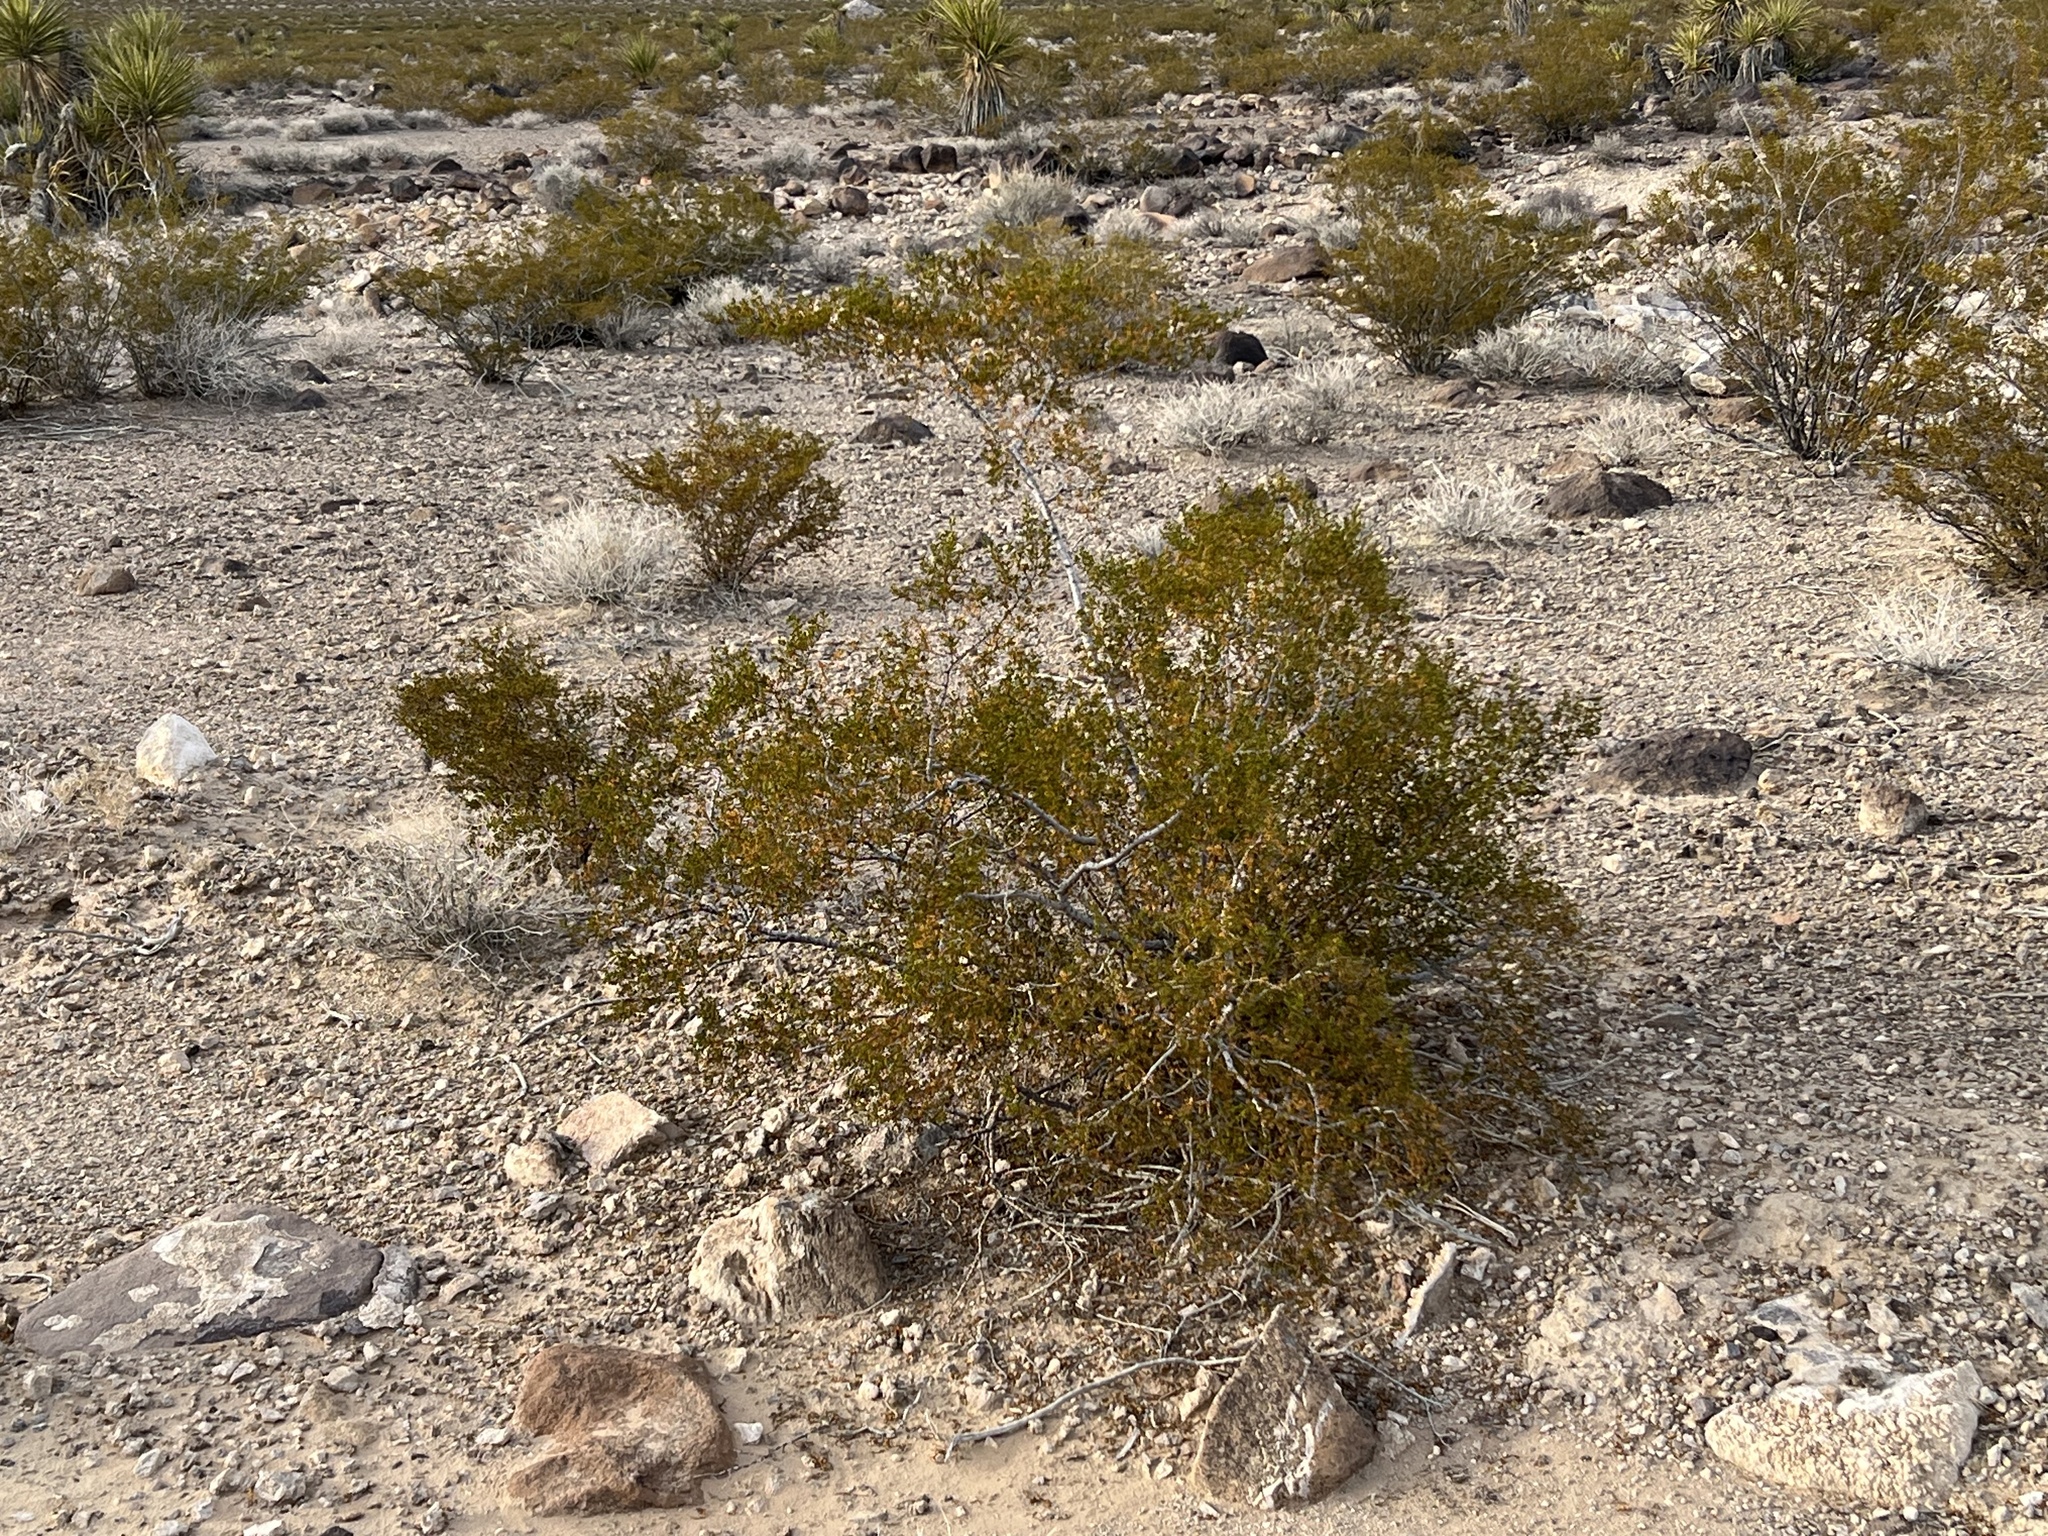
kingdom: Plantae
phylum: Tracheophyta
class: Magnoliopsida
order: Zygophyllales
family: Zygophyllaceae
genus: Larrea
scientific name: Larrea tridentata
